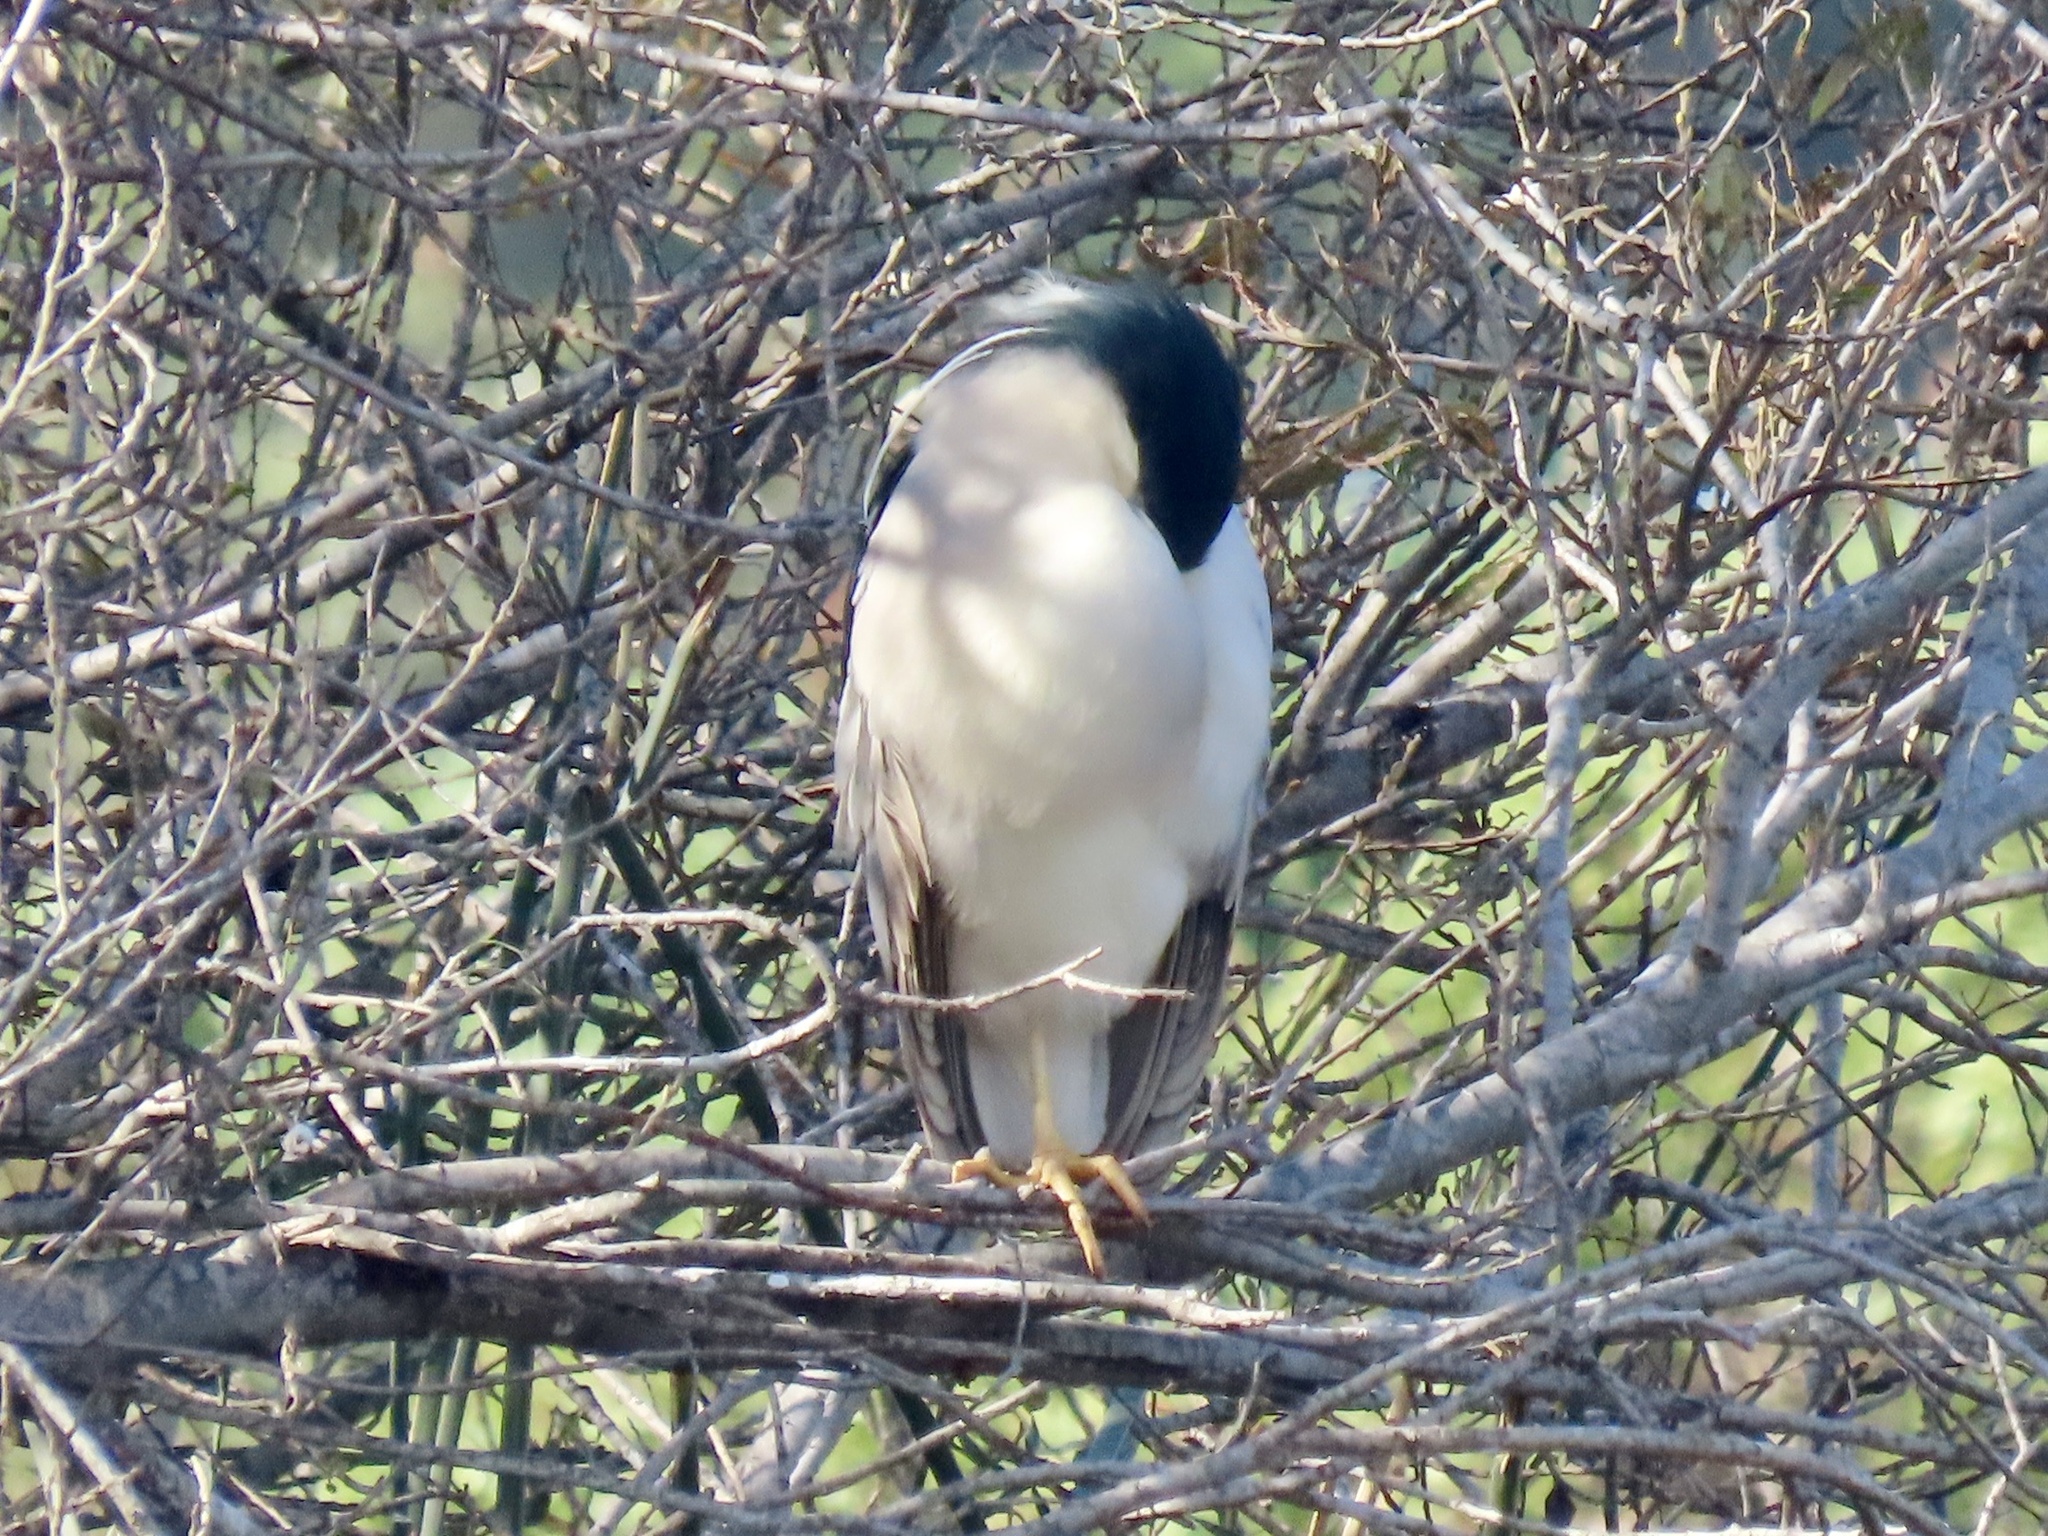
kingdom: Animalia
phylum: Chordata
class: Aves
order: Pelecaniformes
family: Ardeidae
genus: Nycticorax
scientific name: Nycticorax nycticorax
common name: Black-crowned night heron
